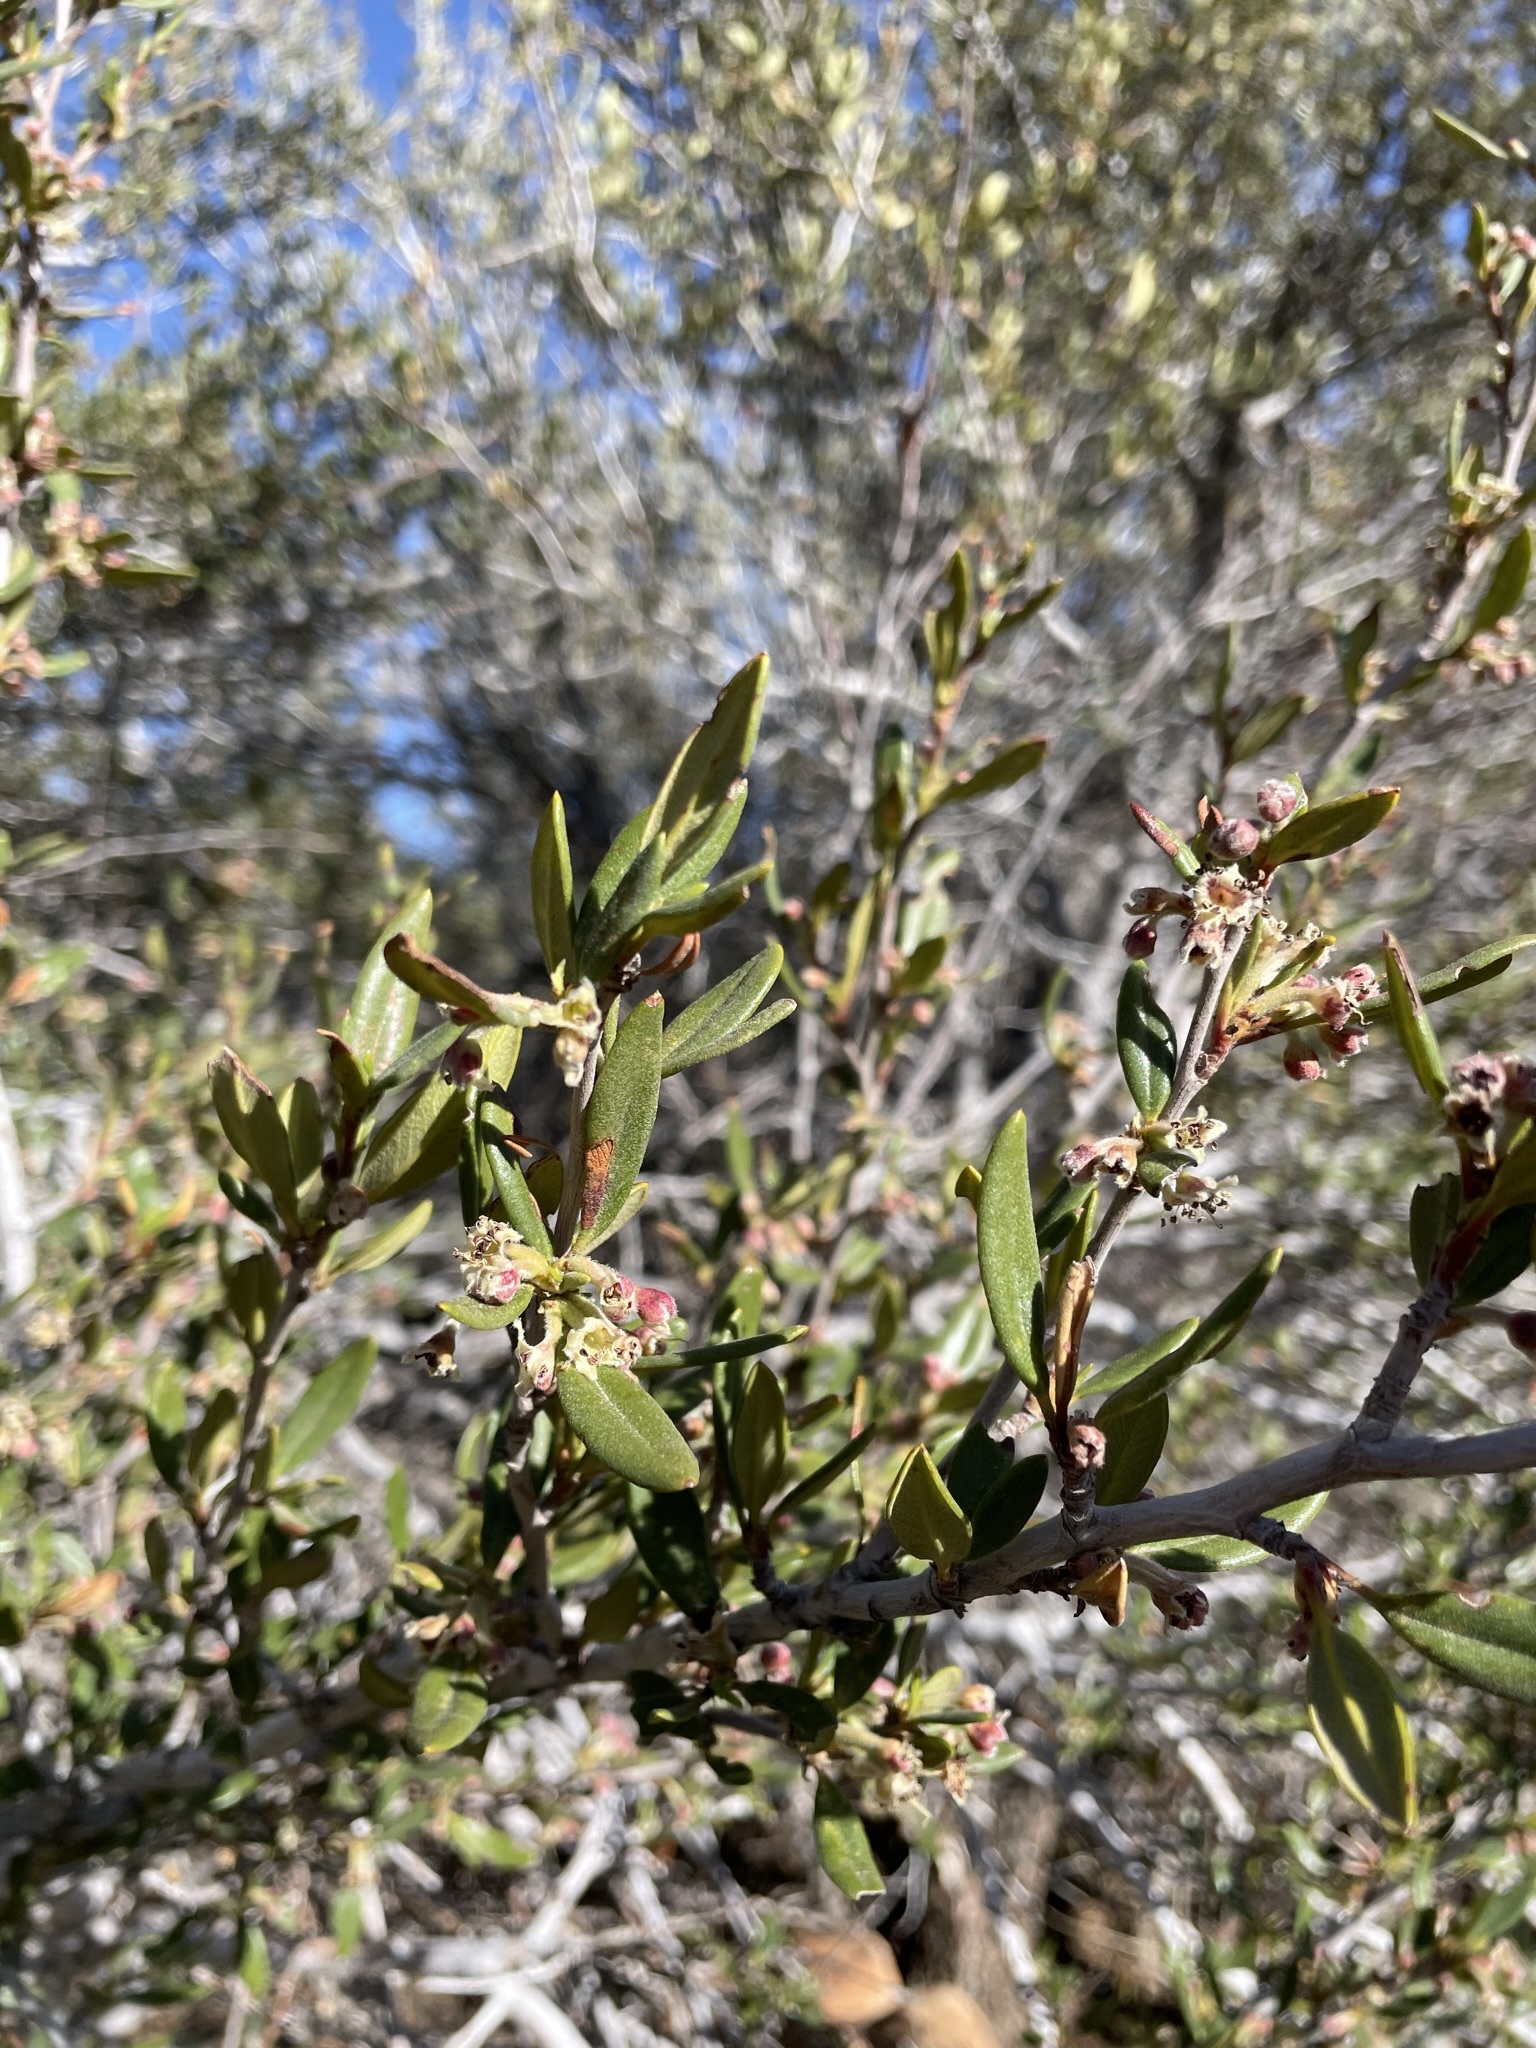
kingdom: Plantae
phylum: Tracheophyta
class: Magnoliopsida
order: Rosales
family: Rosaceae
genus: Cercocarpus
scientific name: Cercocarpus ledifolius
